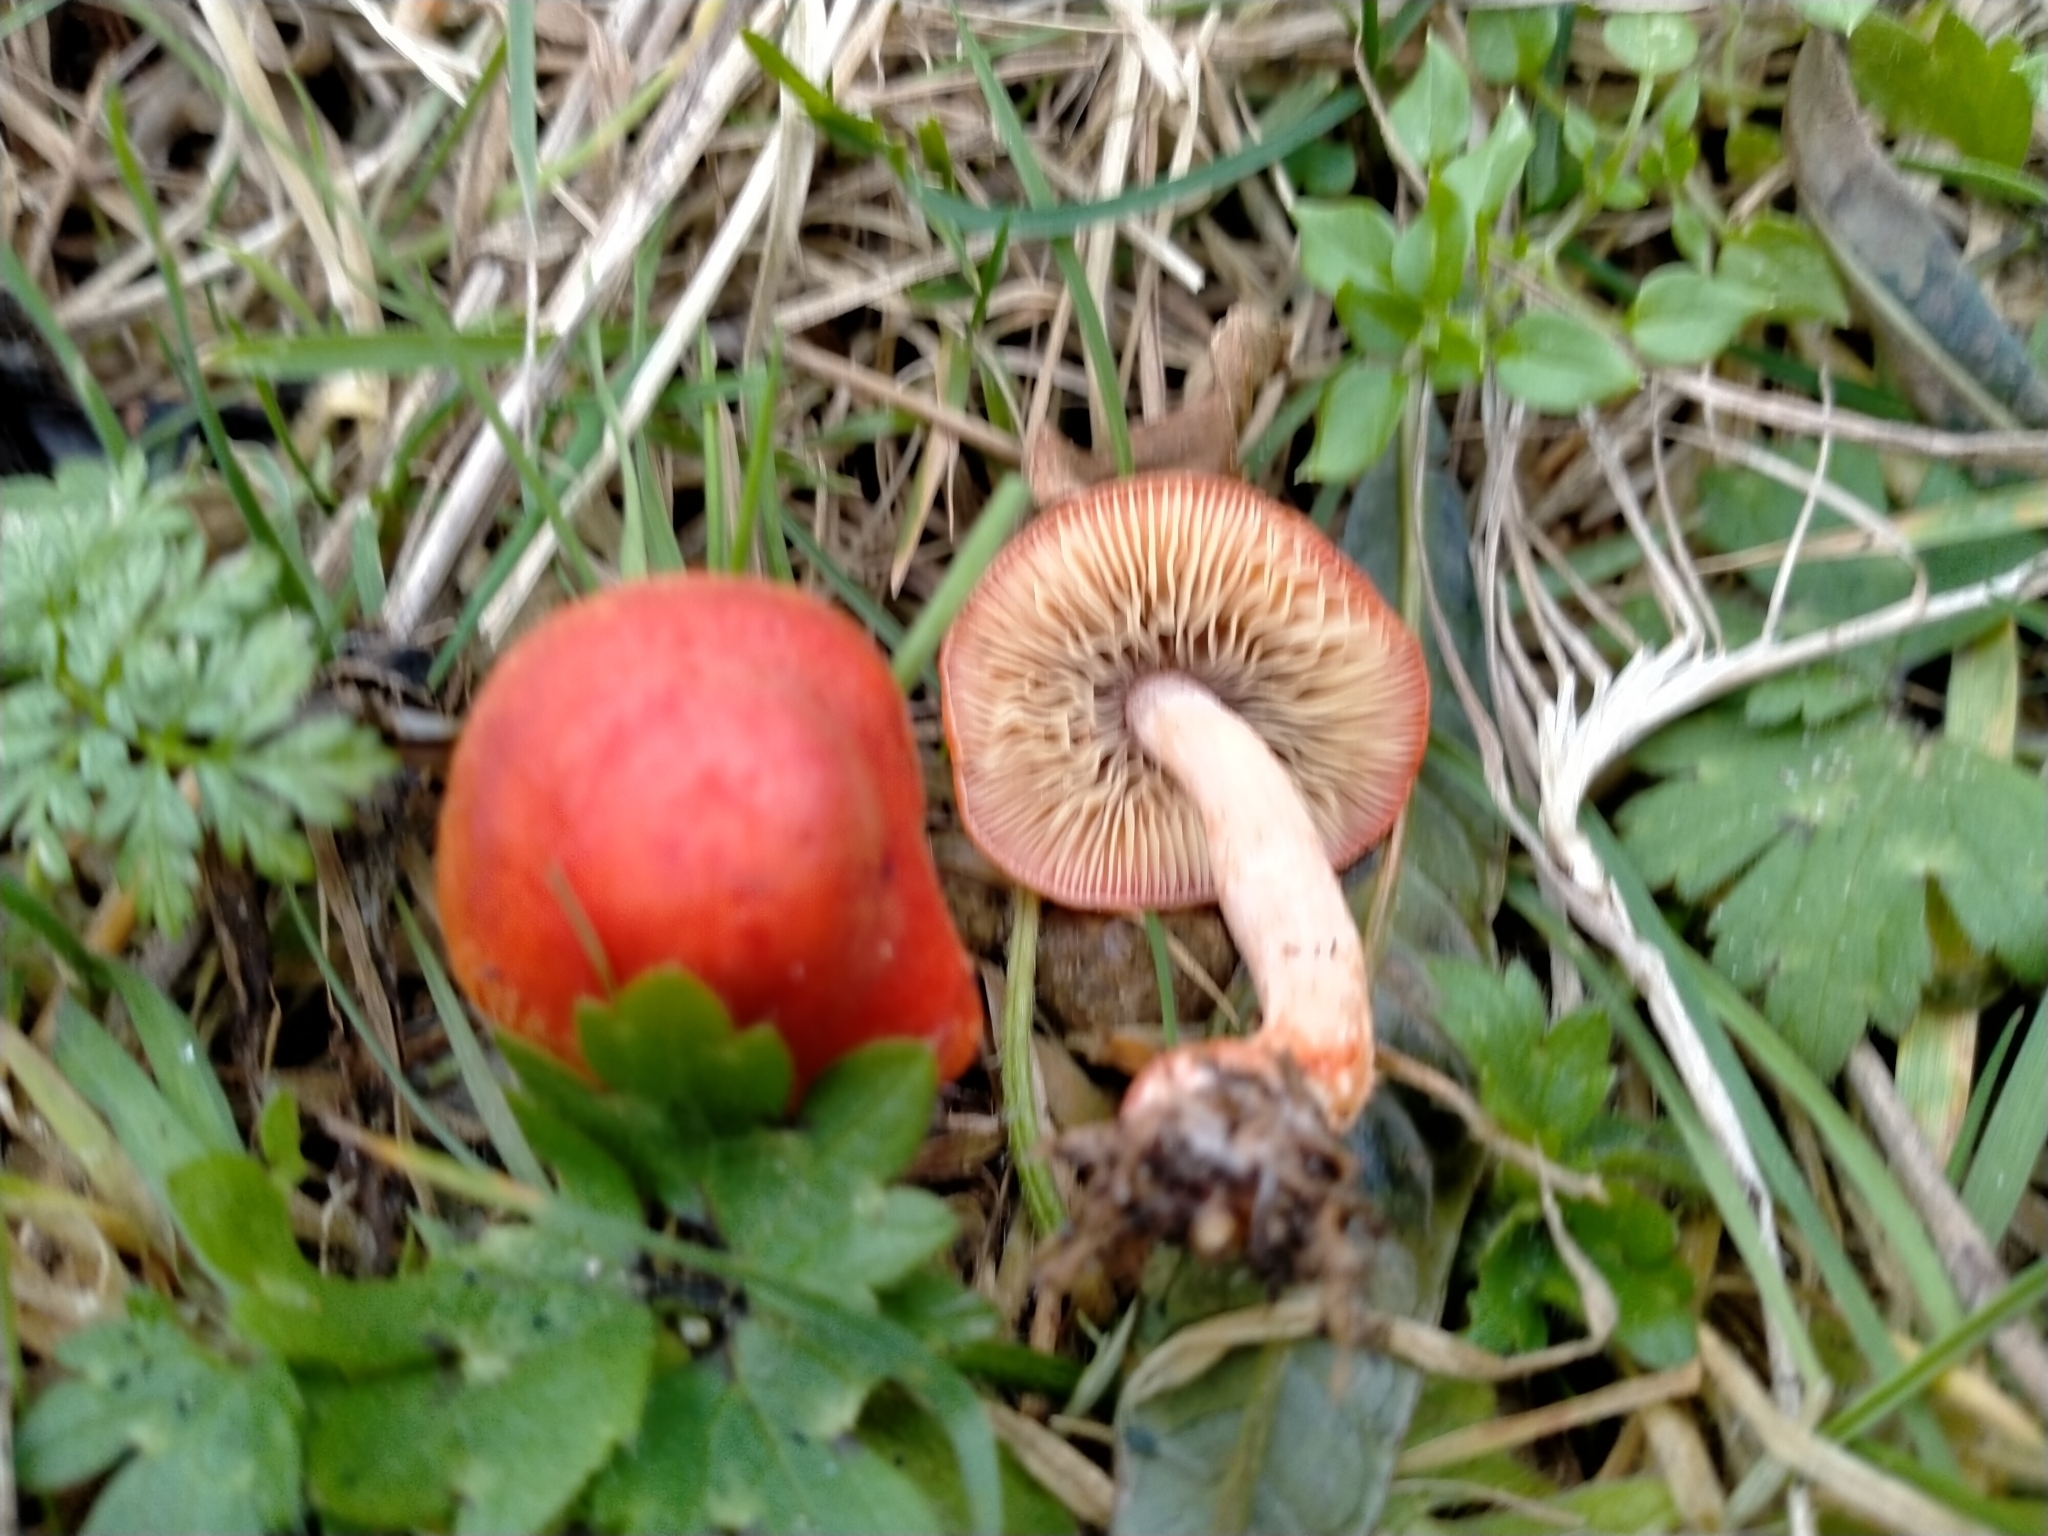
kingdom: Fungi
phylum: Basidiomycota
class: Agaricomycetes
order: Agaricales
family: Strophariaceae
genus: Leratiomyces
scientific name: Leratiomyces ceres
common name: Redlead roundhead
